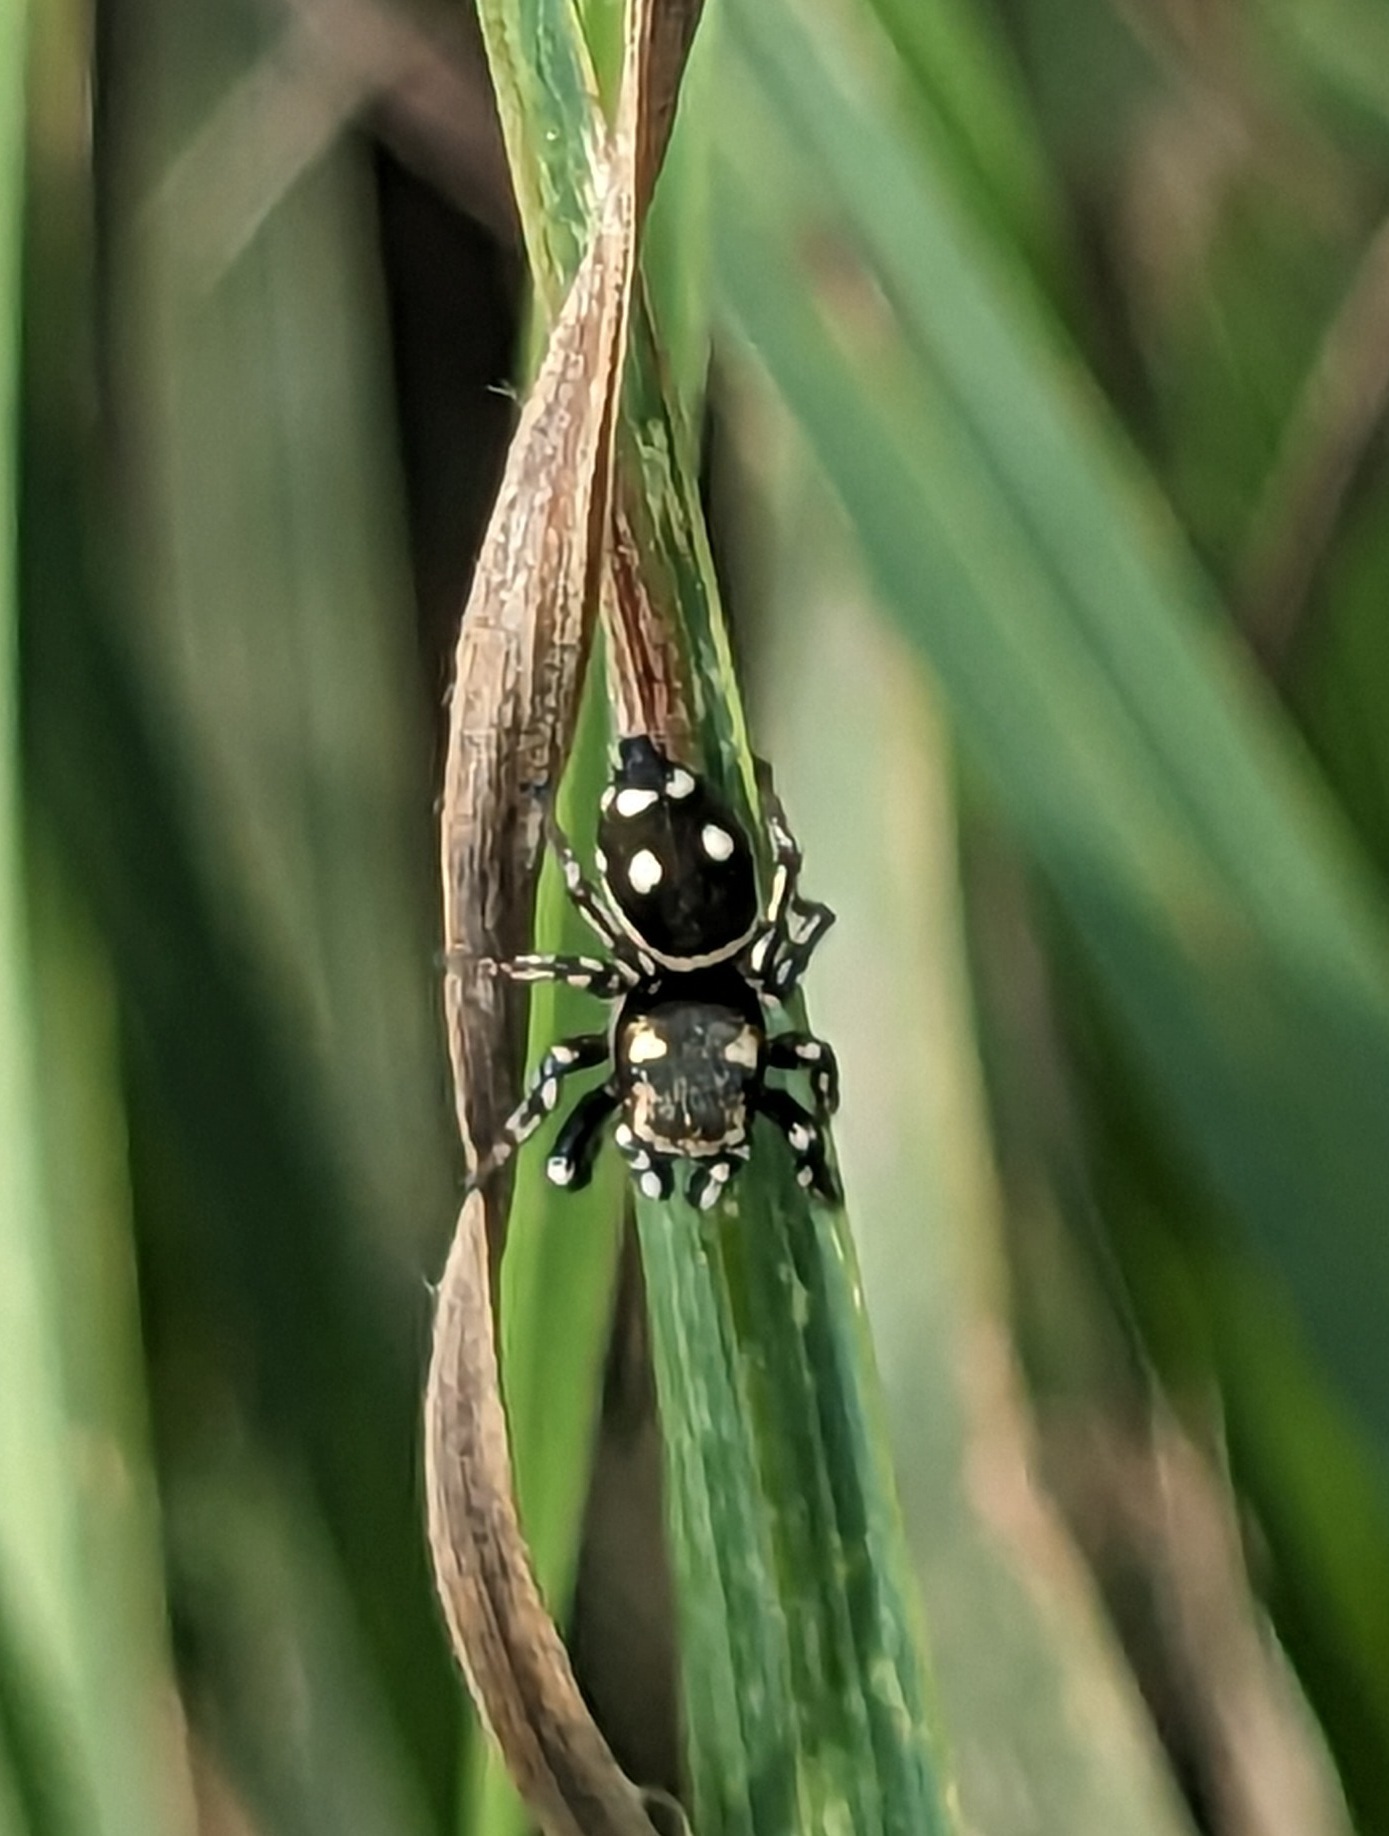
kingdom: Animalia
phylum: Arthropoda
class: Arachnida
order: Araneae
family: Salticidae
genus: Heliophanus
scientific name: Heliophanus apiatus
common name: Sun jumping spider
